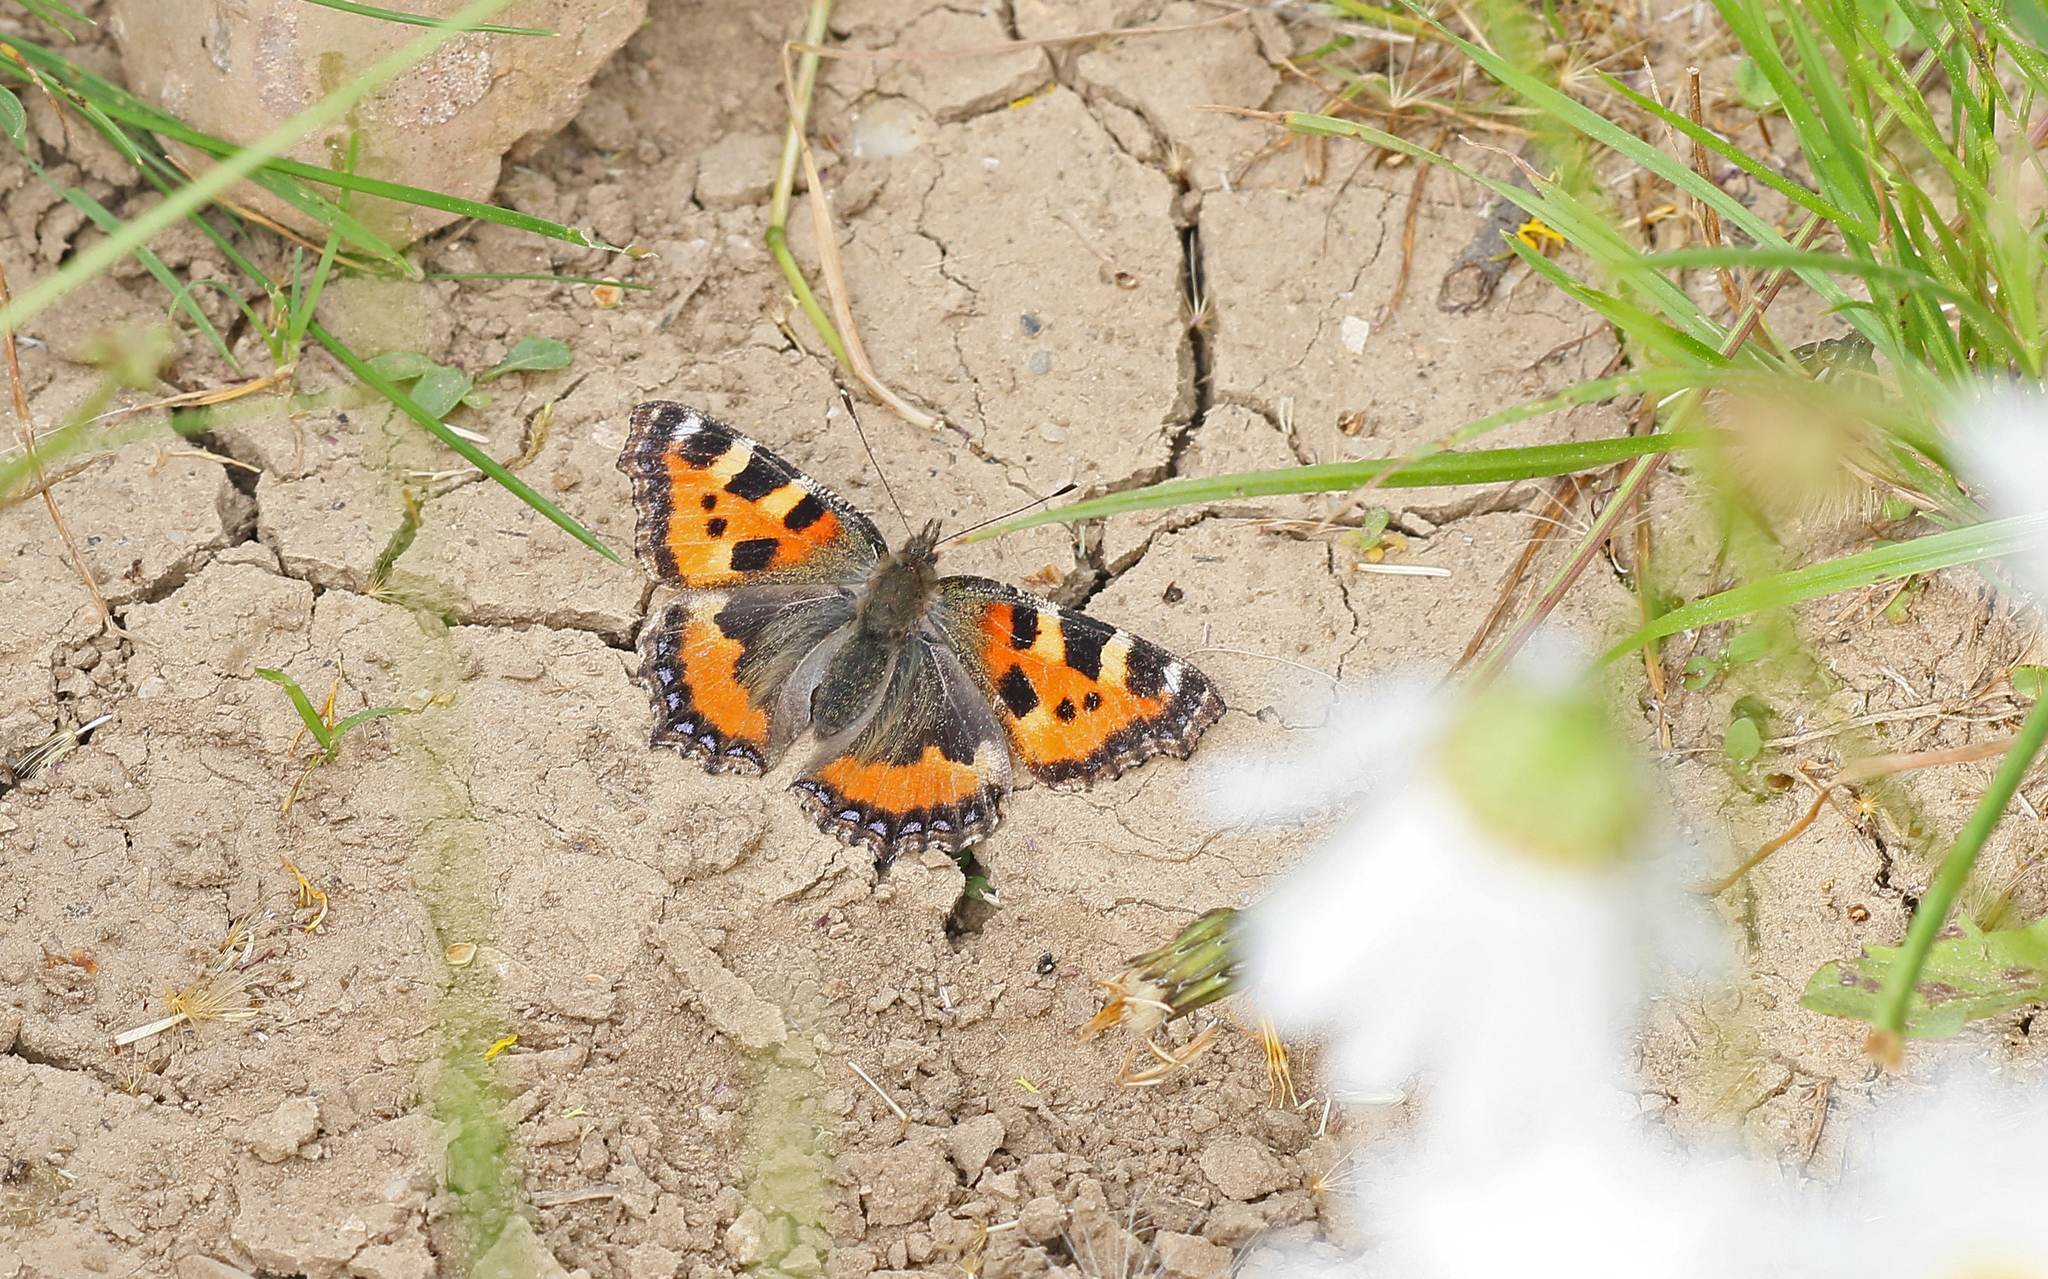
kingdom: Animalia
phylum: Arthropoda
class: Insecta
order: Lepidoptera
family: Nymphalidae
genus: Aglais
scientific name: Aglais urticae
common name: Small tortoiseshell
